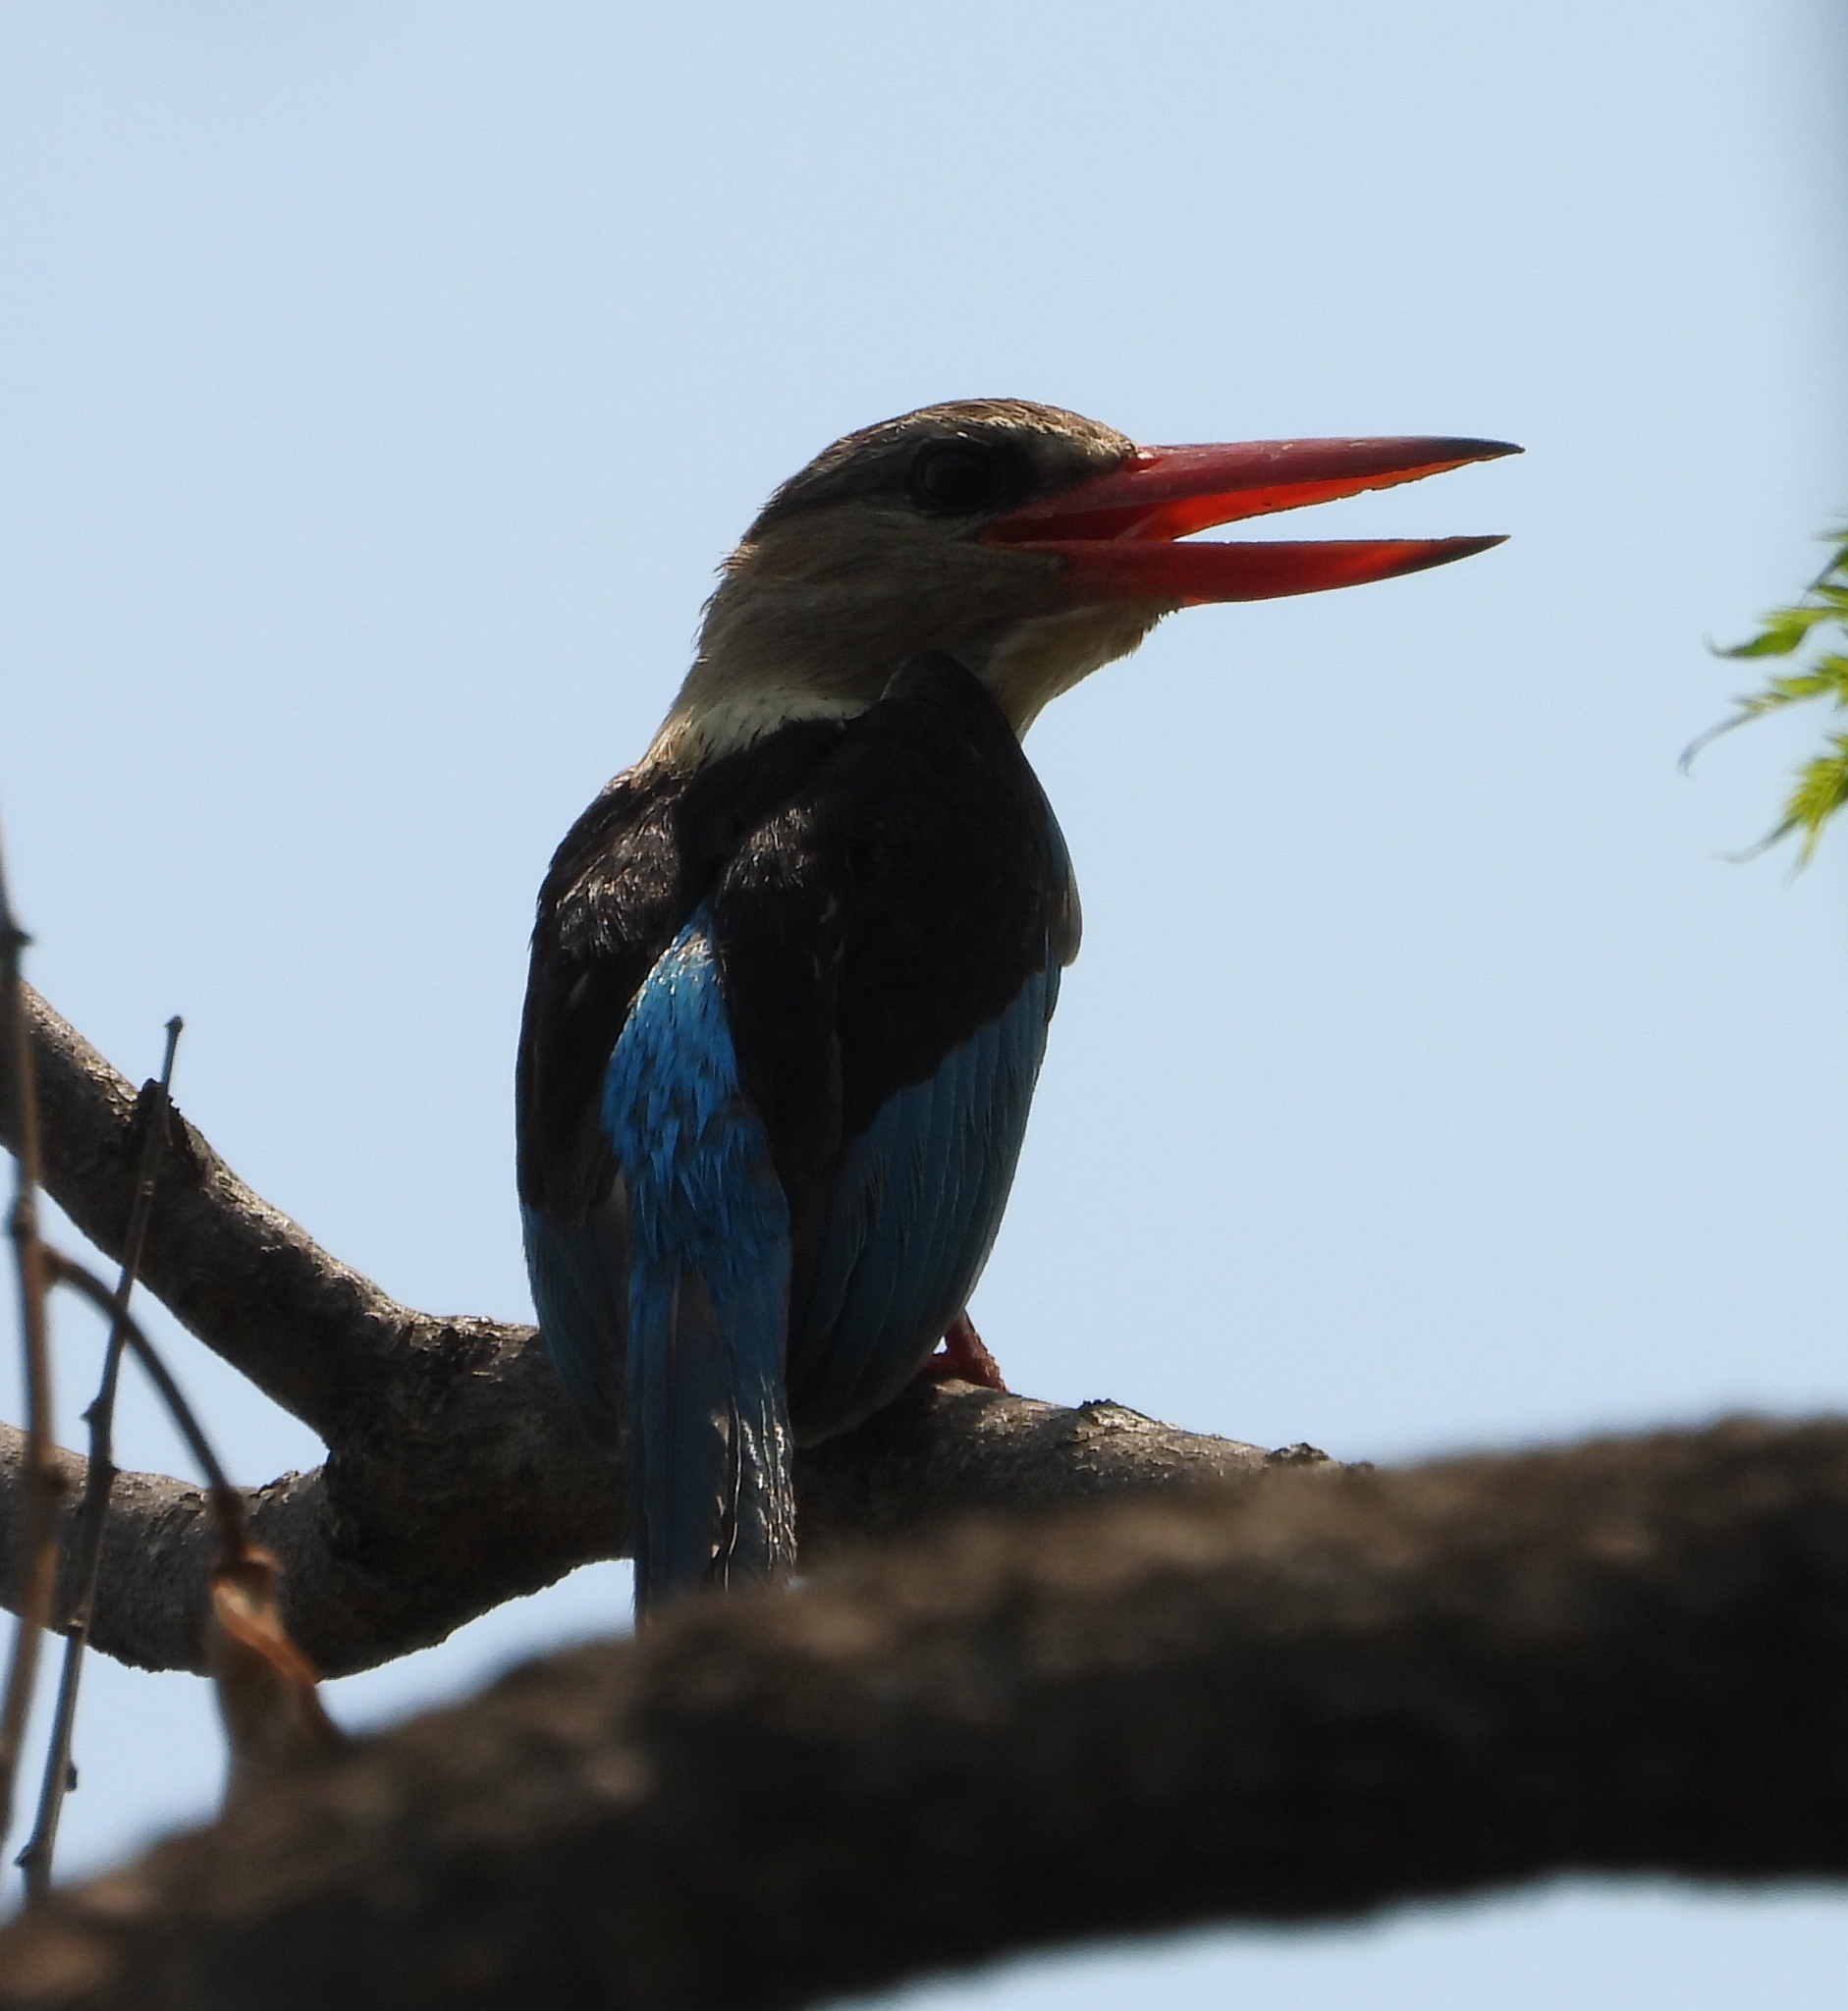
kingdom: Animalia
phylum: Chordata
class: Aves
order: Coraciiformes
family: Alcedinidae
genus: Halcyon
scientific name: Halcyon albiventris
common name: Brown-hooded kingfisher
